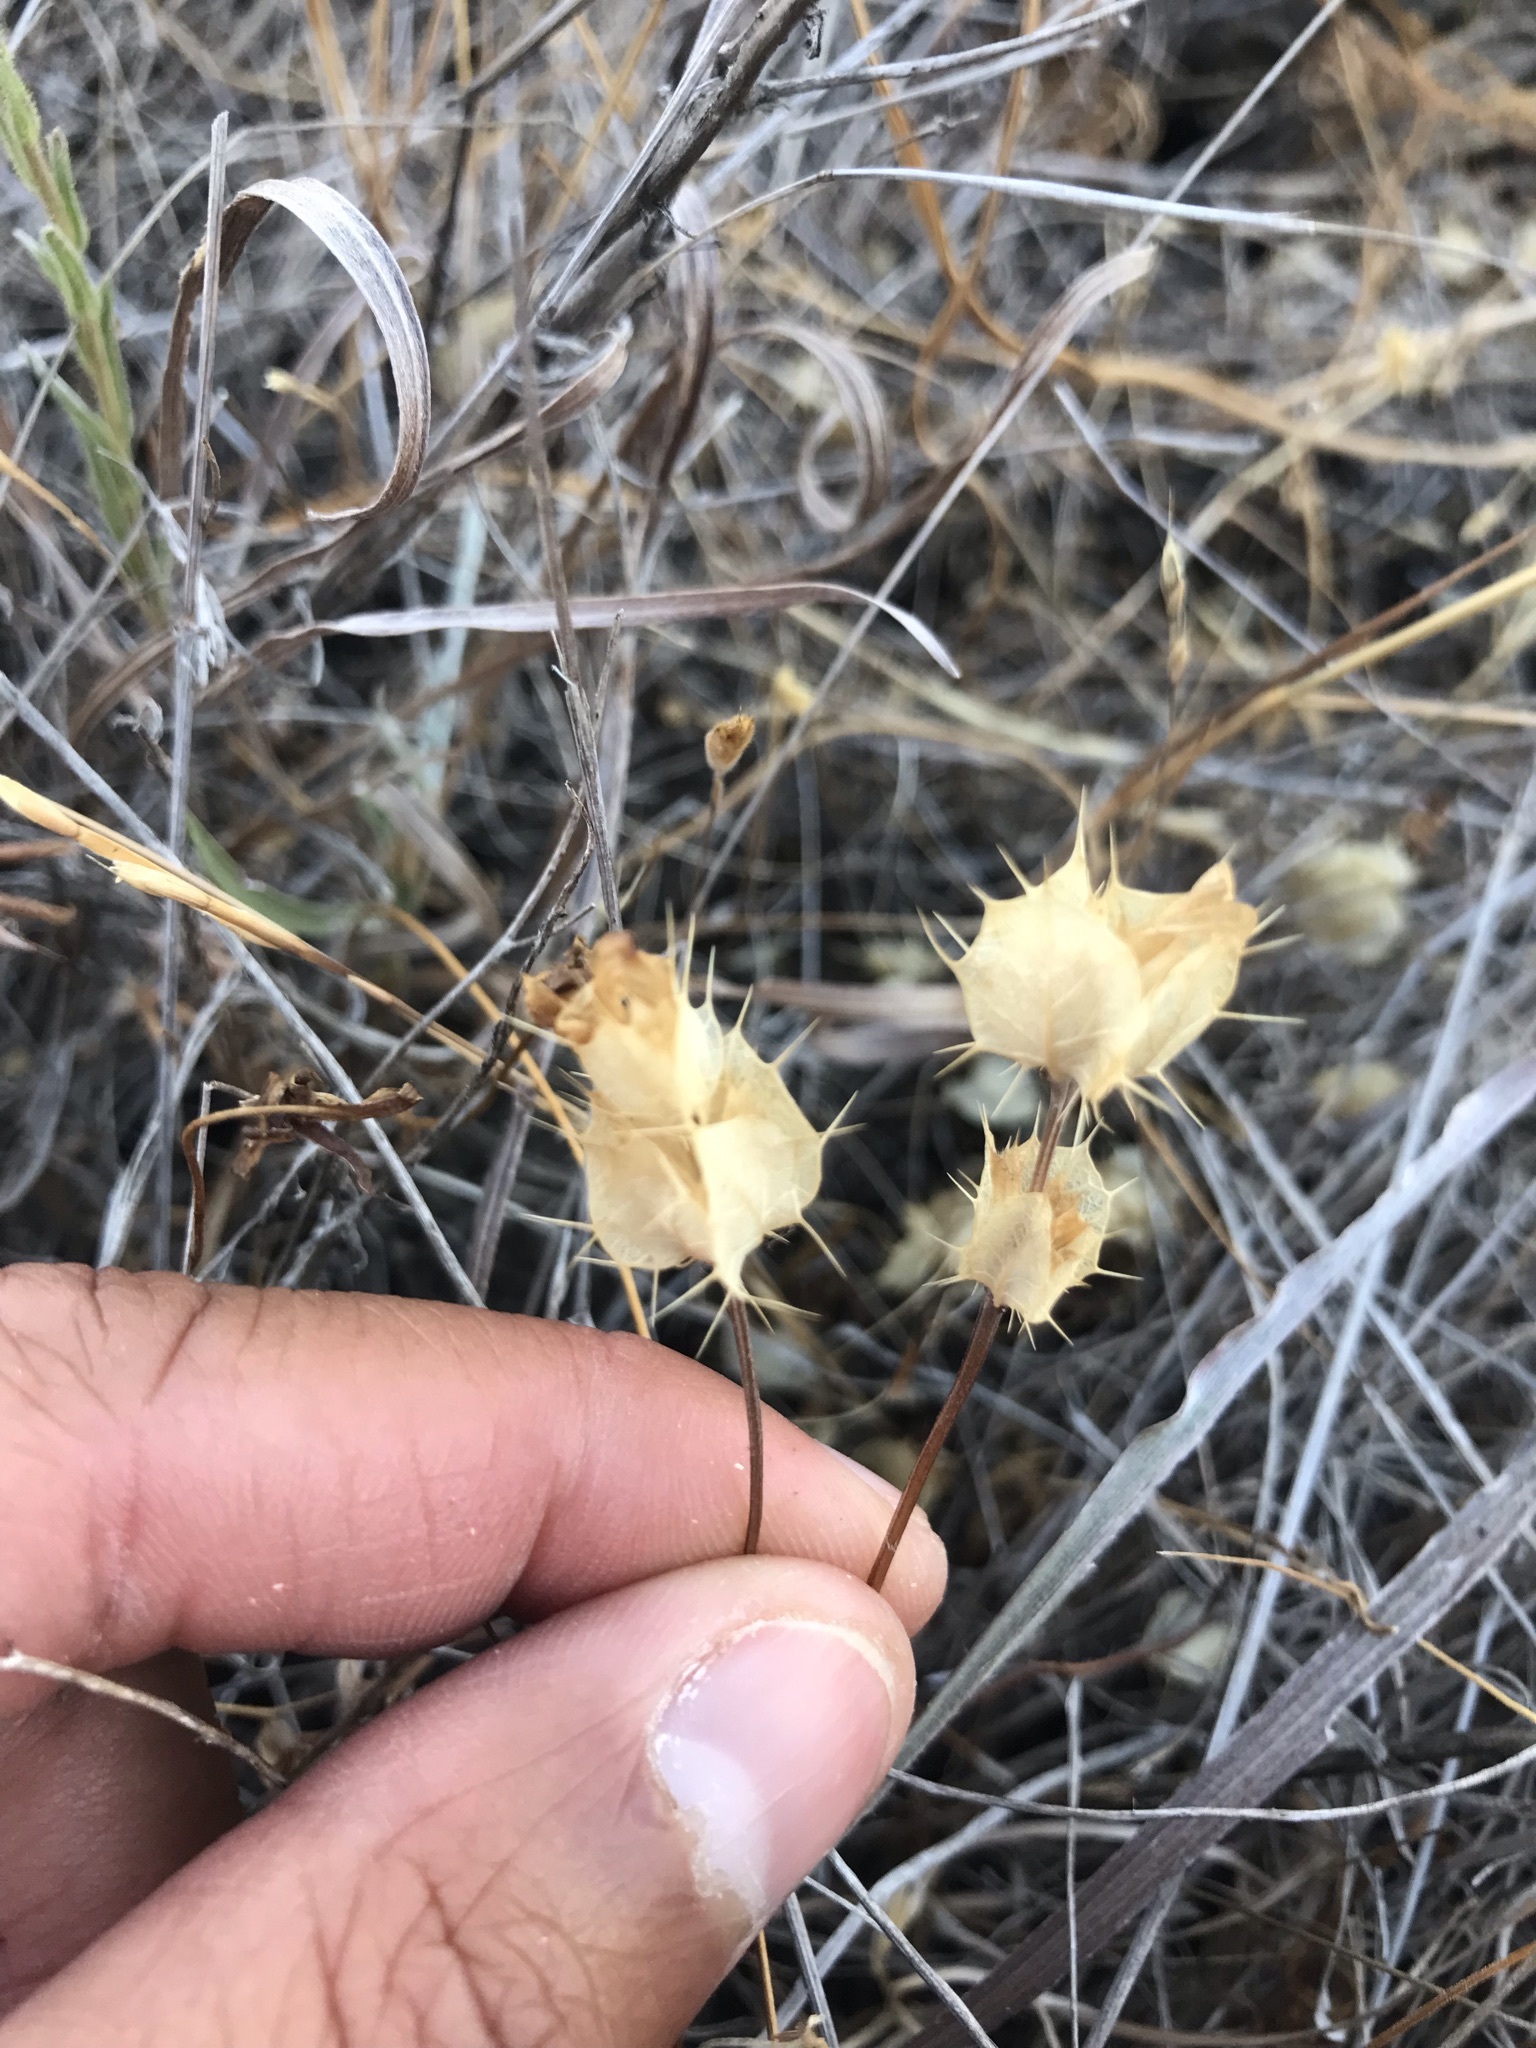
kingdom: Plantae
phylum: Tracheophyta
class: Magnoliopsida
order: Lamiales
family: Lamiaceae
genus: Acanthomintha
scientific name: Acanthomintha duttonii
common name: San mateo thorn-mint
